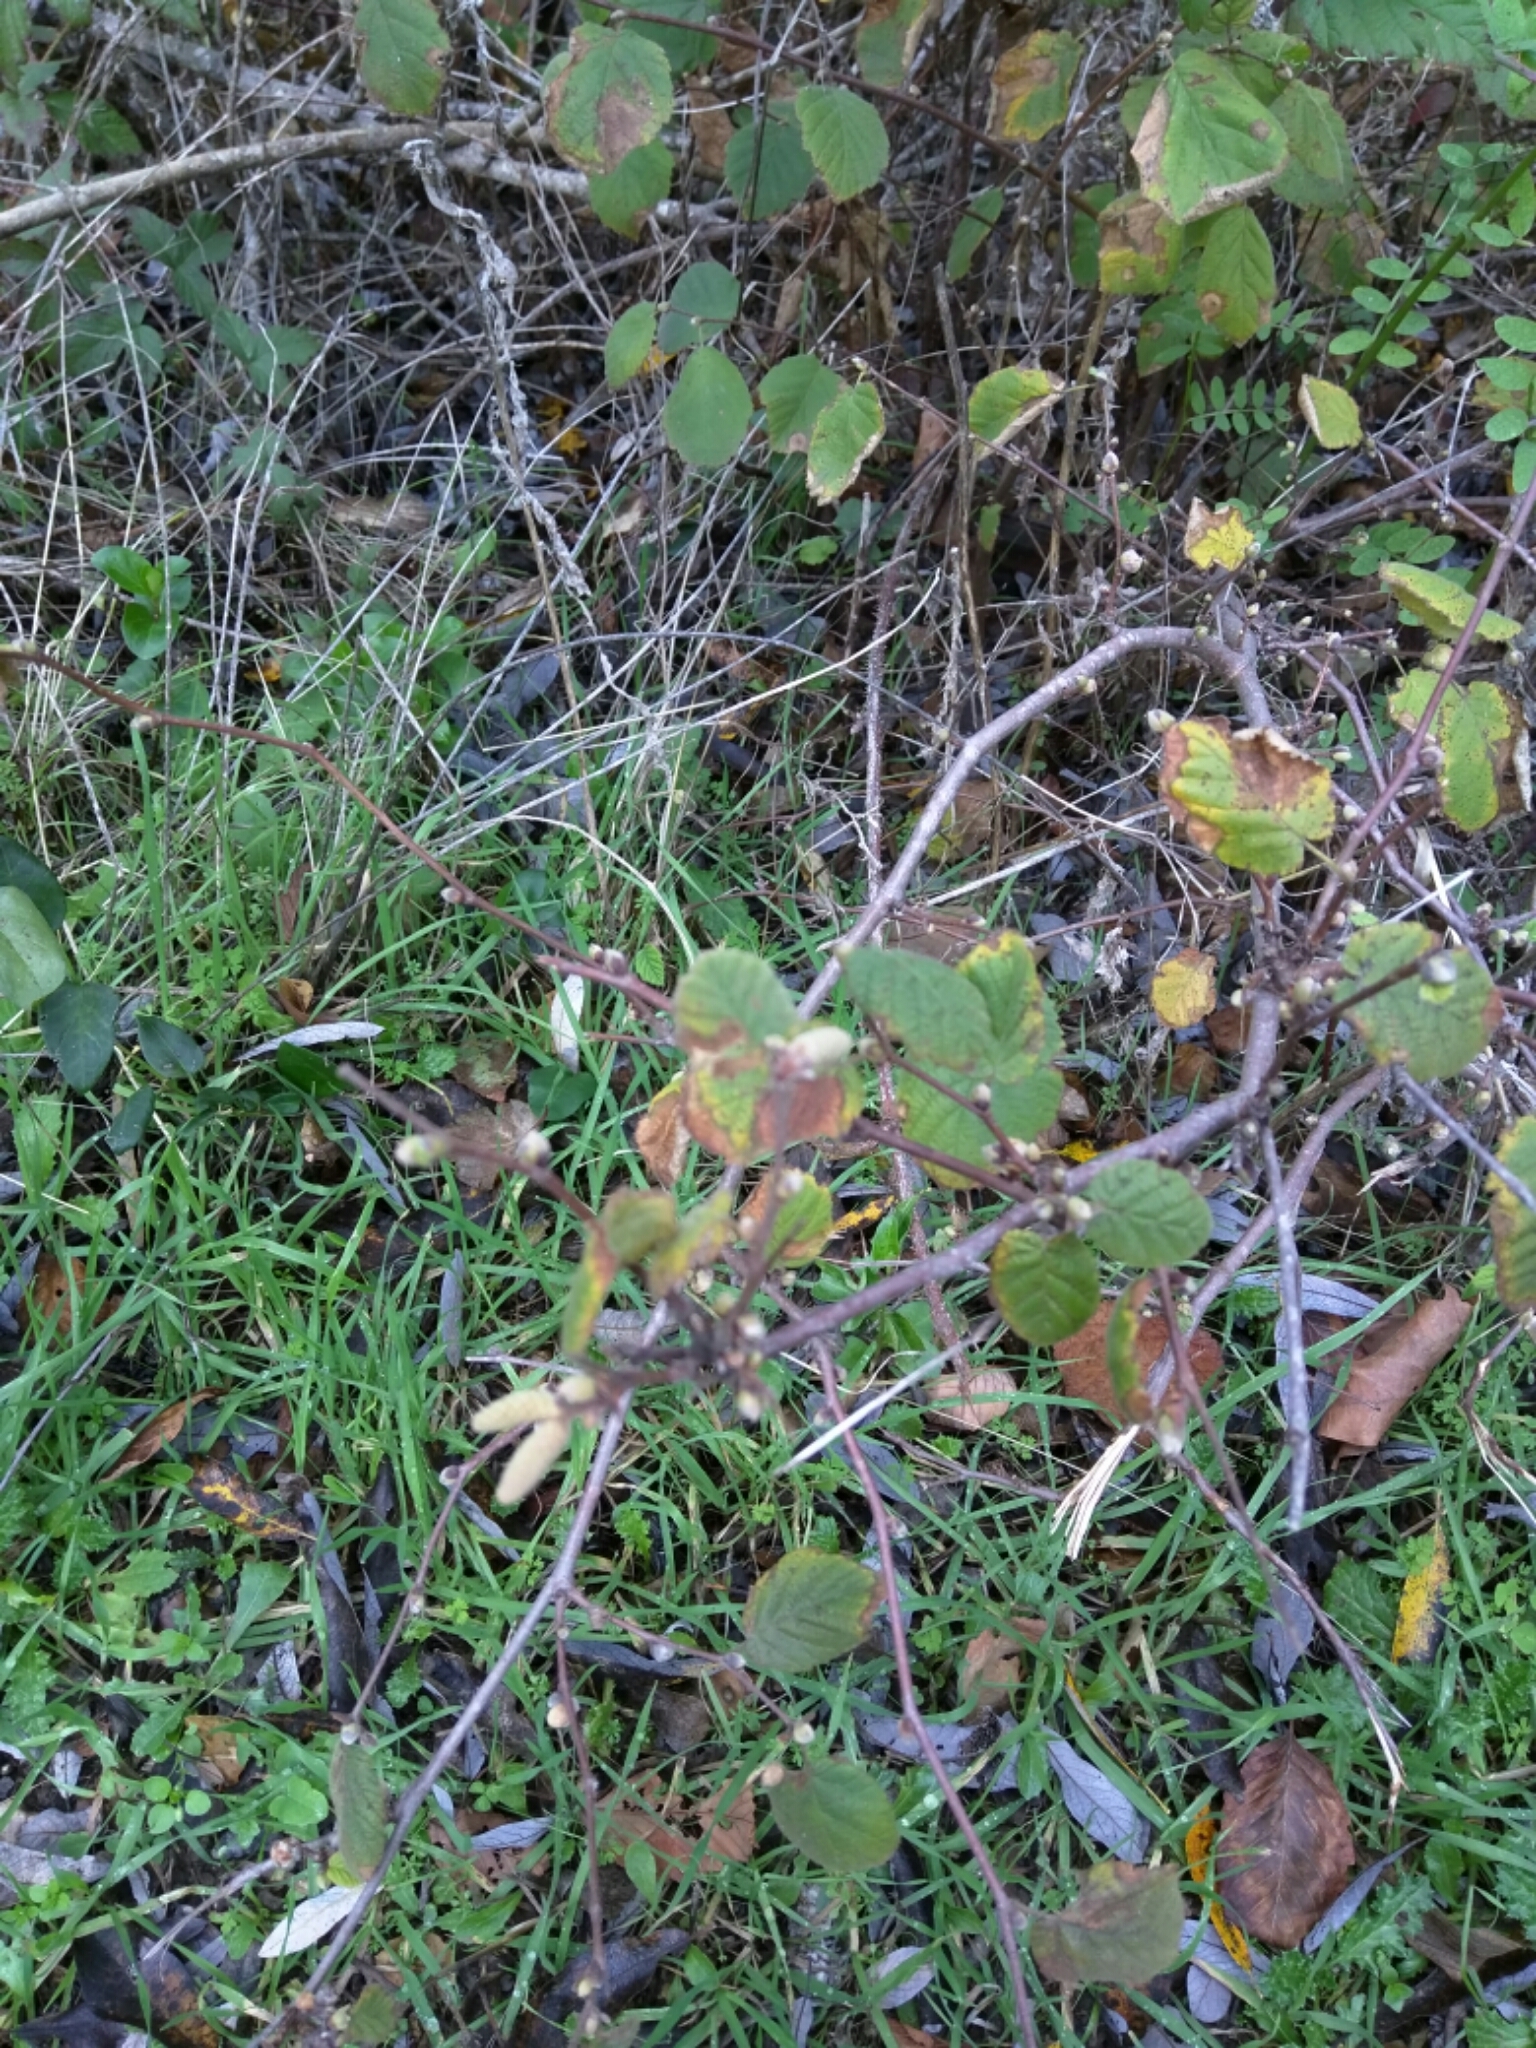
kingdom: Plantae
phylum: Tracheophyta
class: Magnoliopsida
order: Fagales
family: Betulaceae
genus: Corylus
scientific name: Corylus cornuta
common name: Beaked hazel
